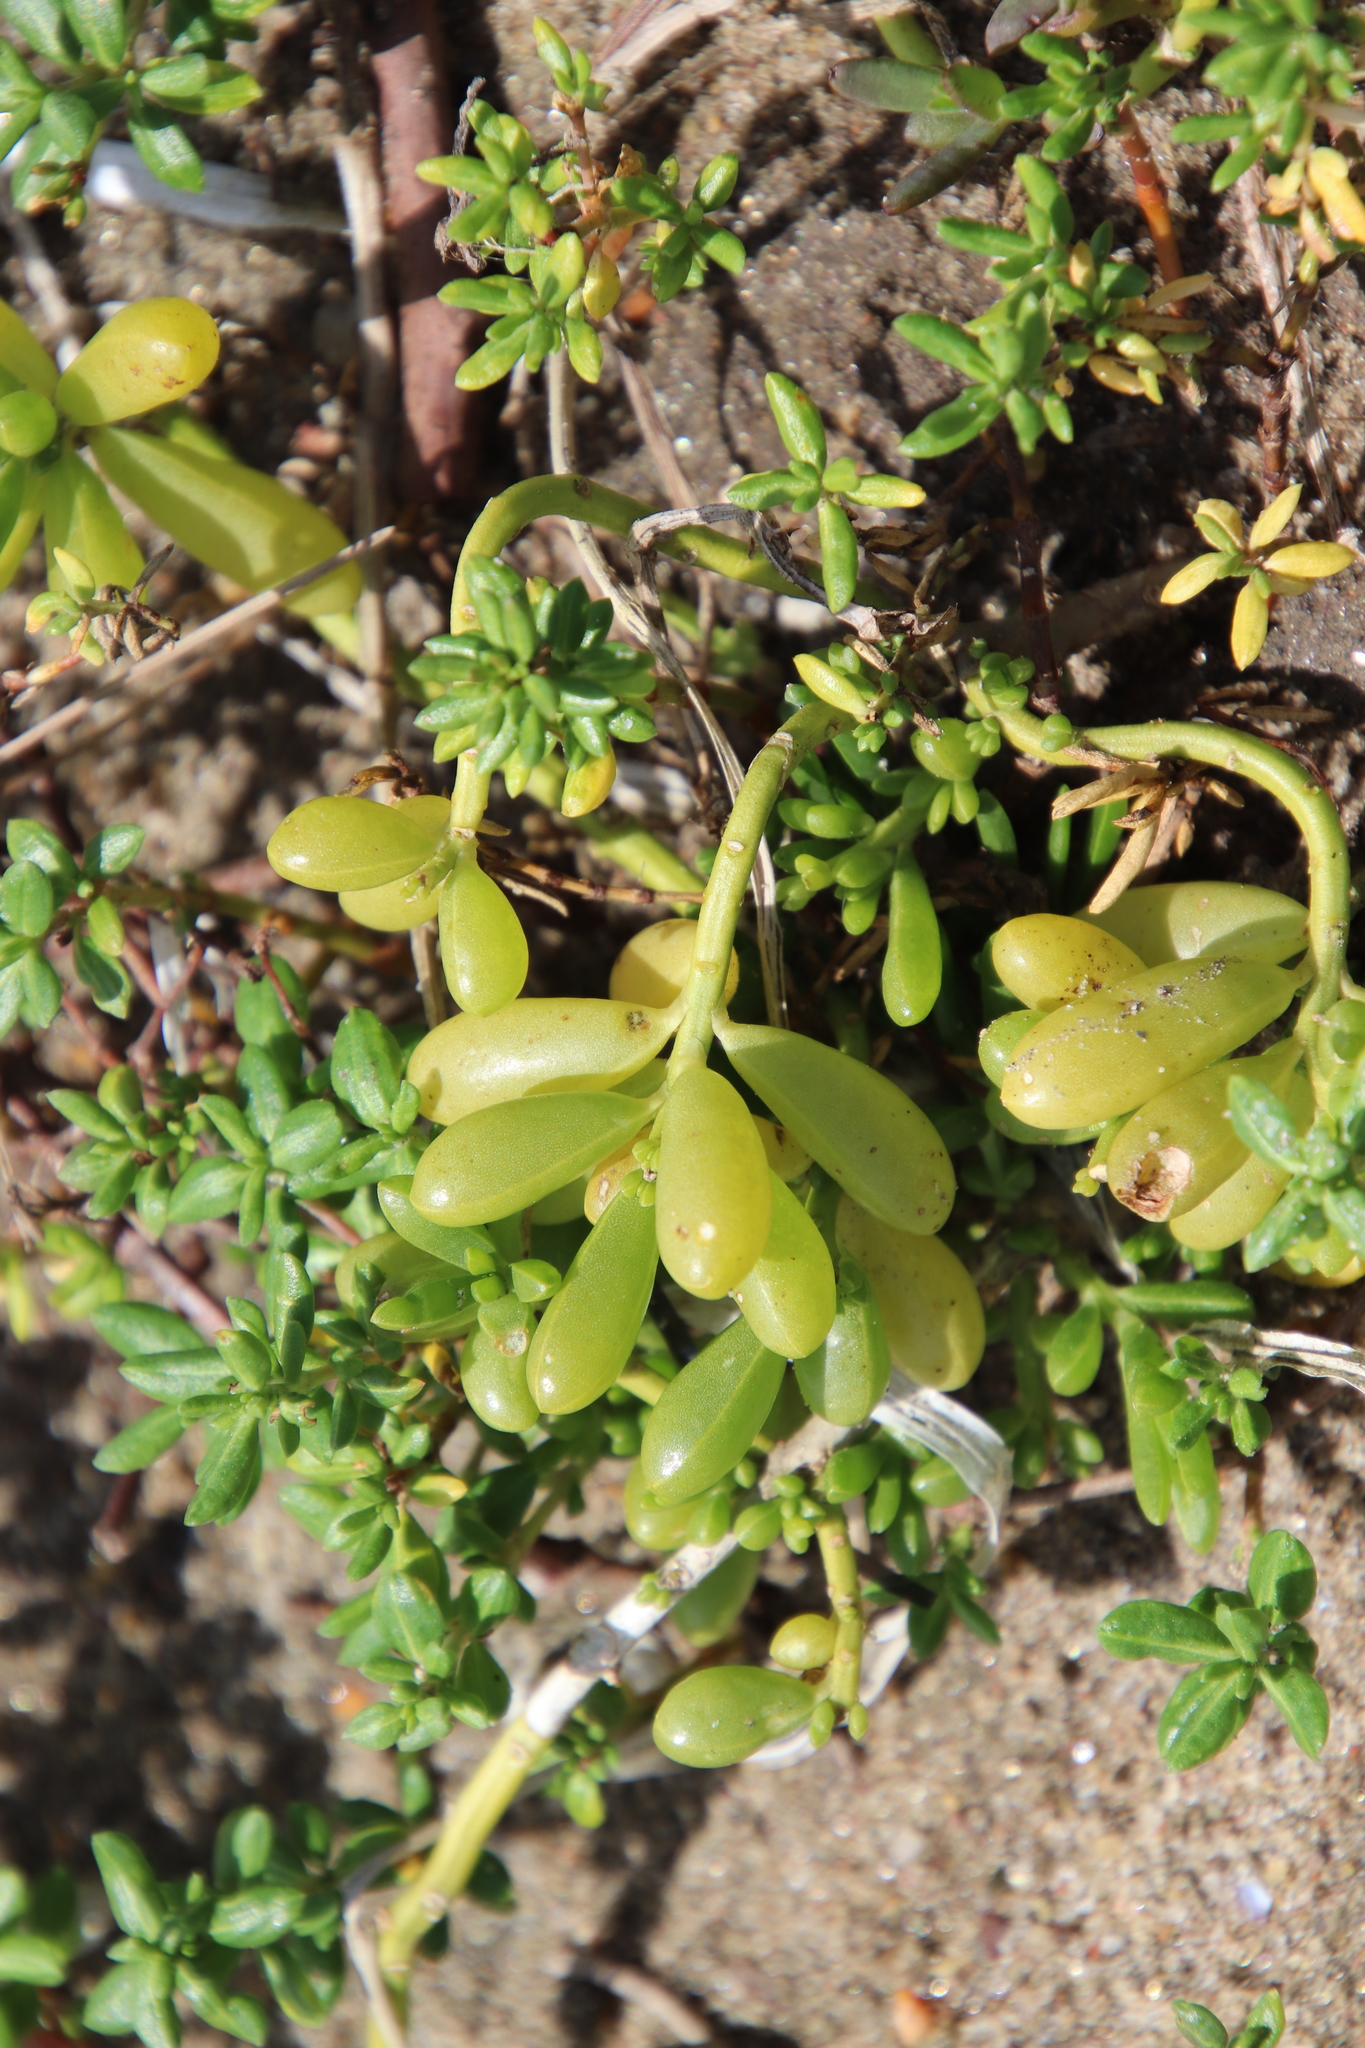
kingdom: Plantae
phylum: Tracheophyta
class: Magnoliopsida
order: Brassicales
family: Bataceae
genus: Batis
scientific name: Batis maritima
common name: Turtleweed
